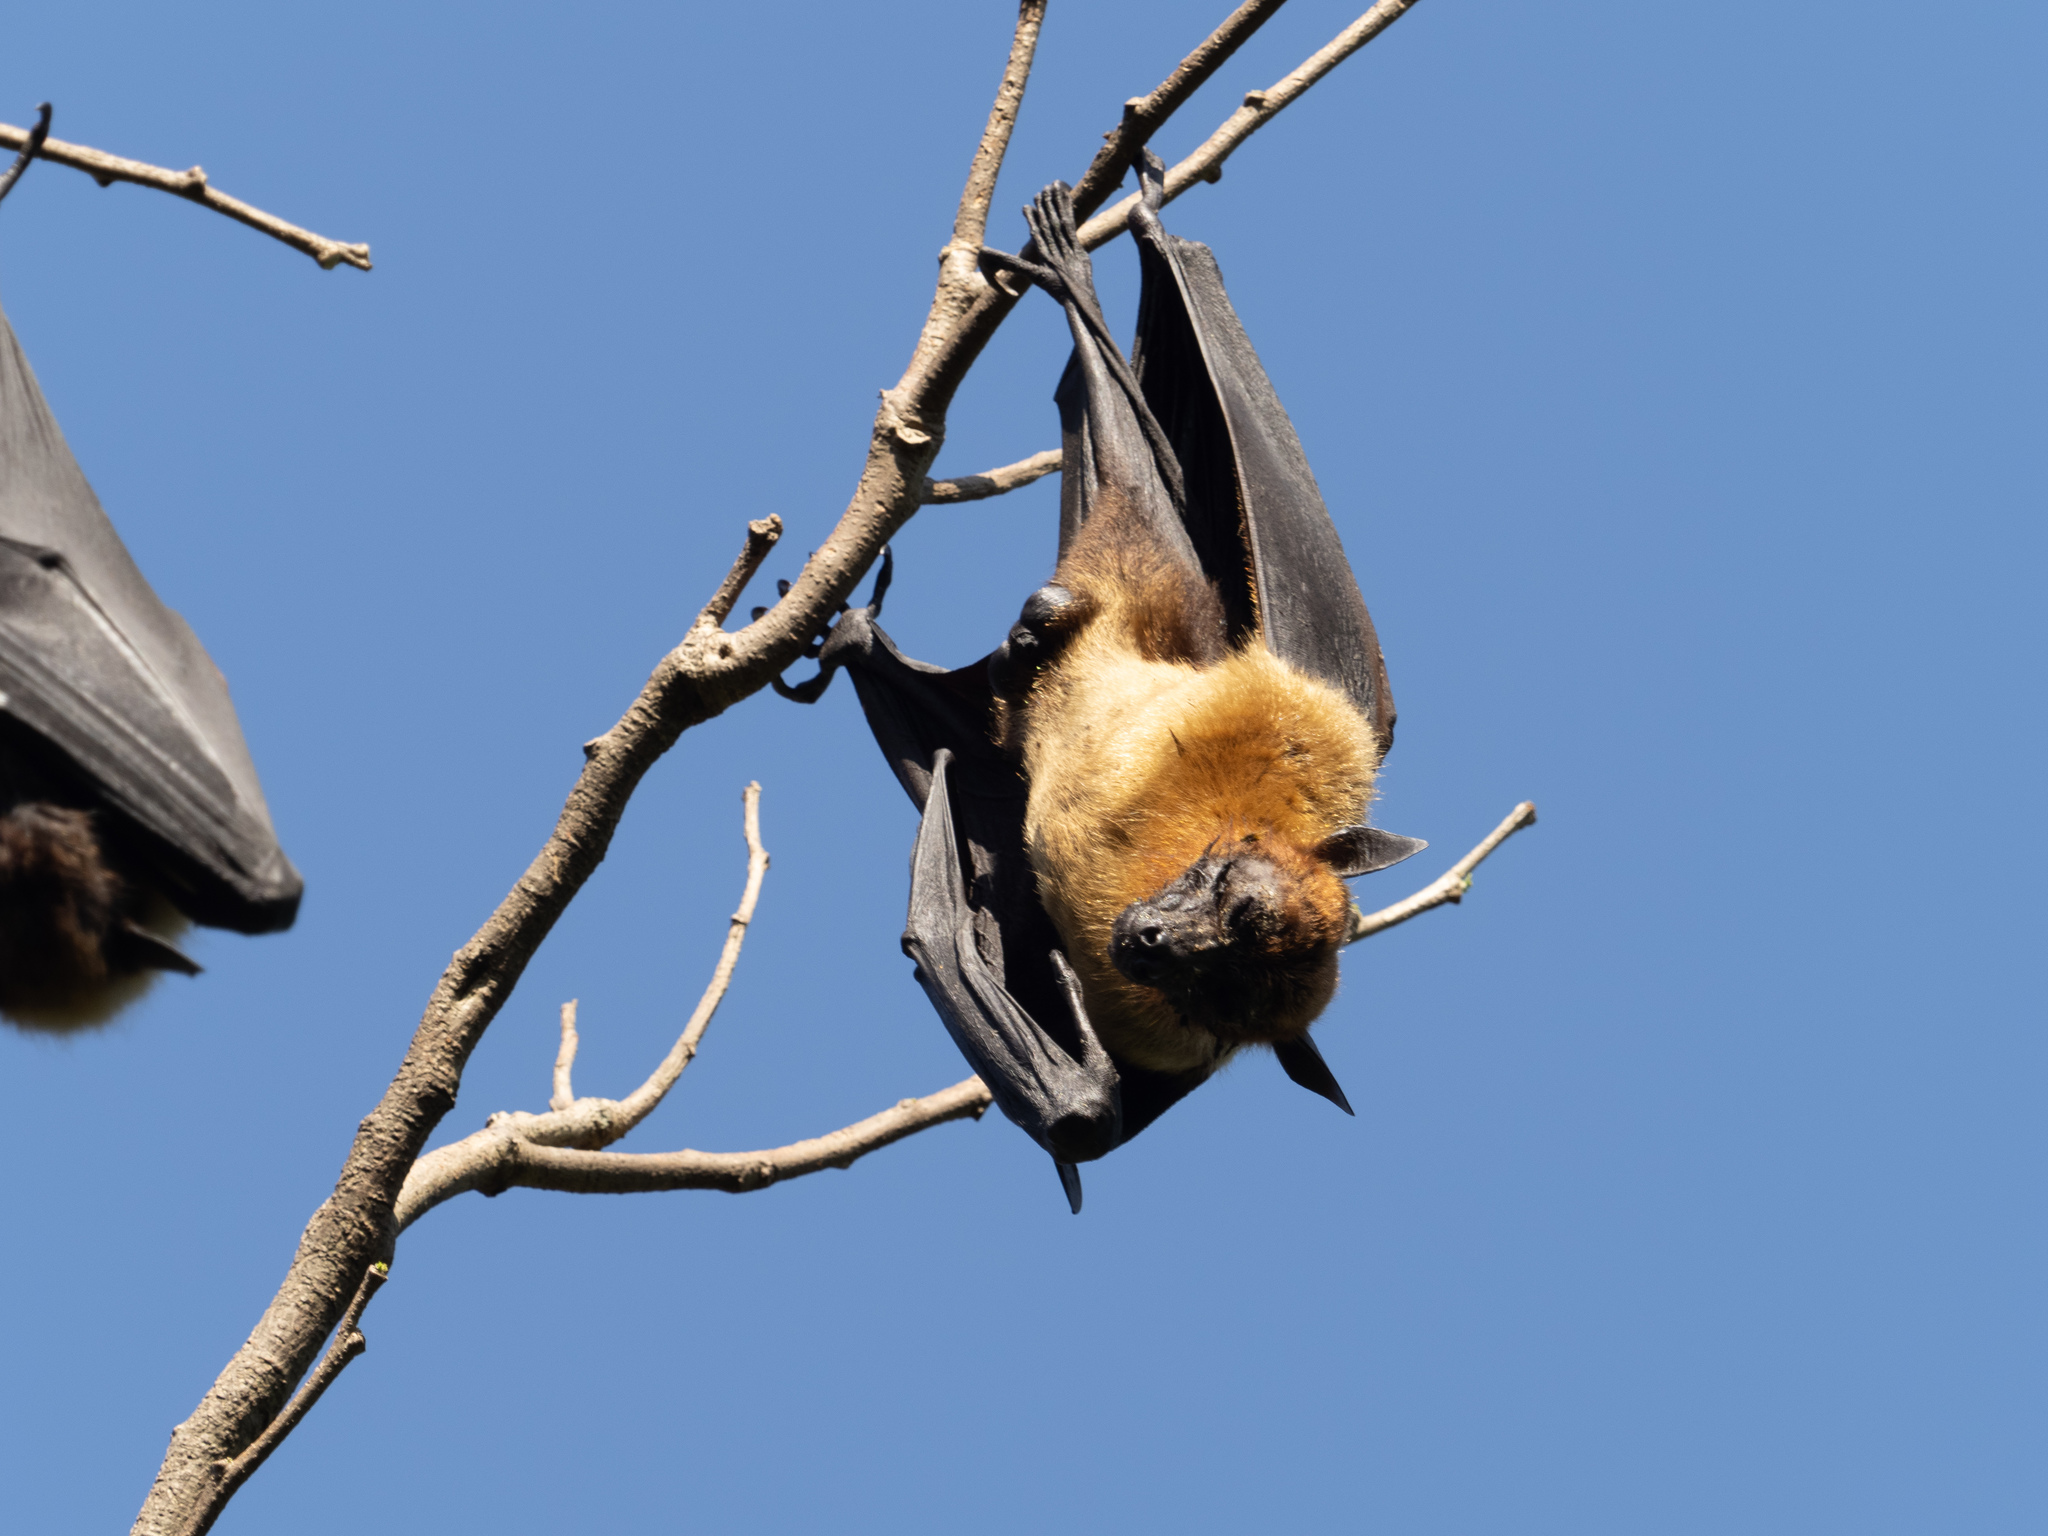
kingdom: Animalia
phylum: Chordata
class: Mammalia
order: Chiroptera
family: Pteropodidae
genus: Pteropus
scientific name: Pteropus vampyrus
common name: Large flying fox
